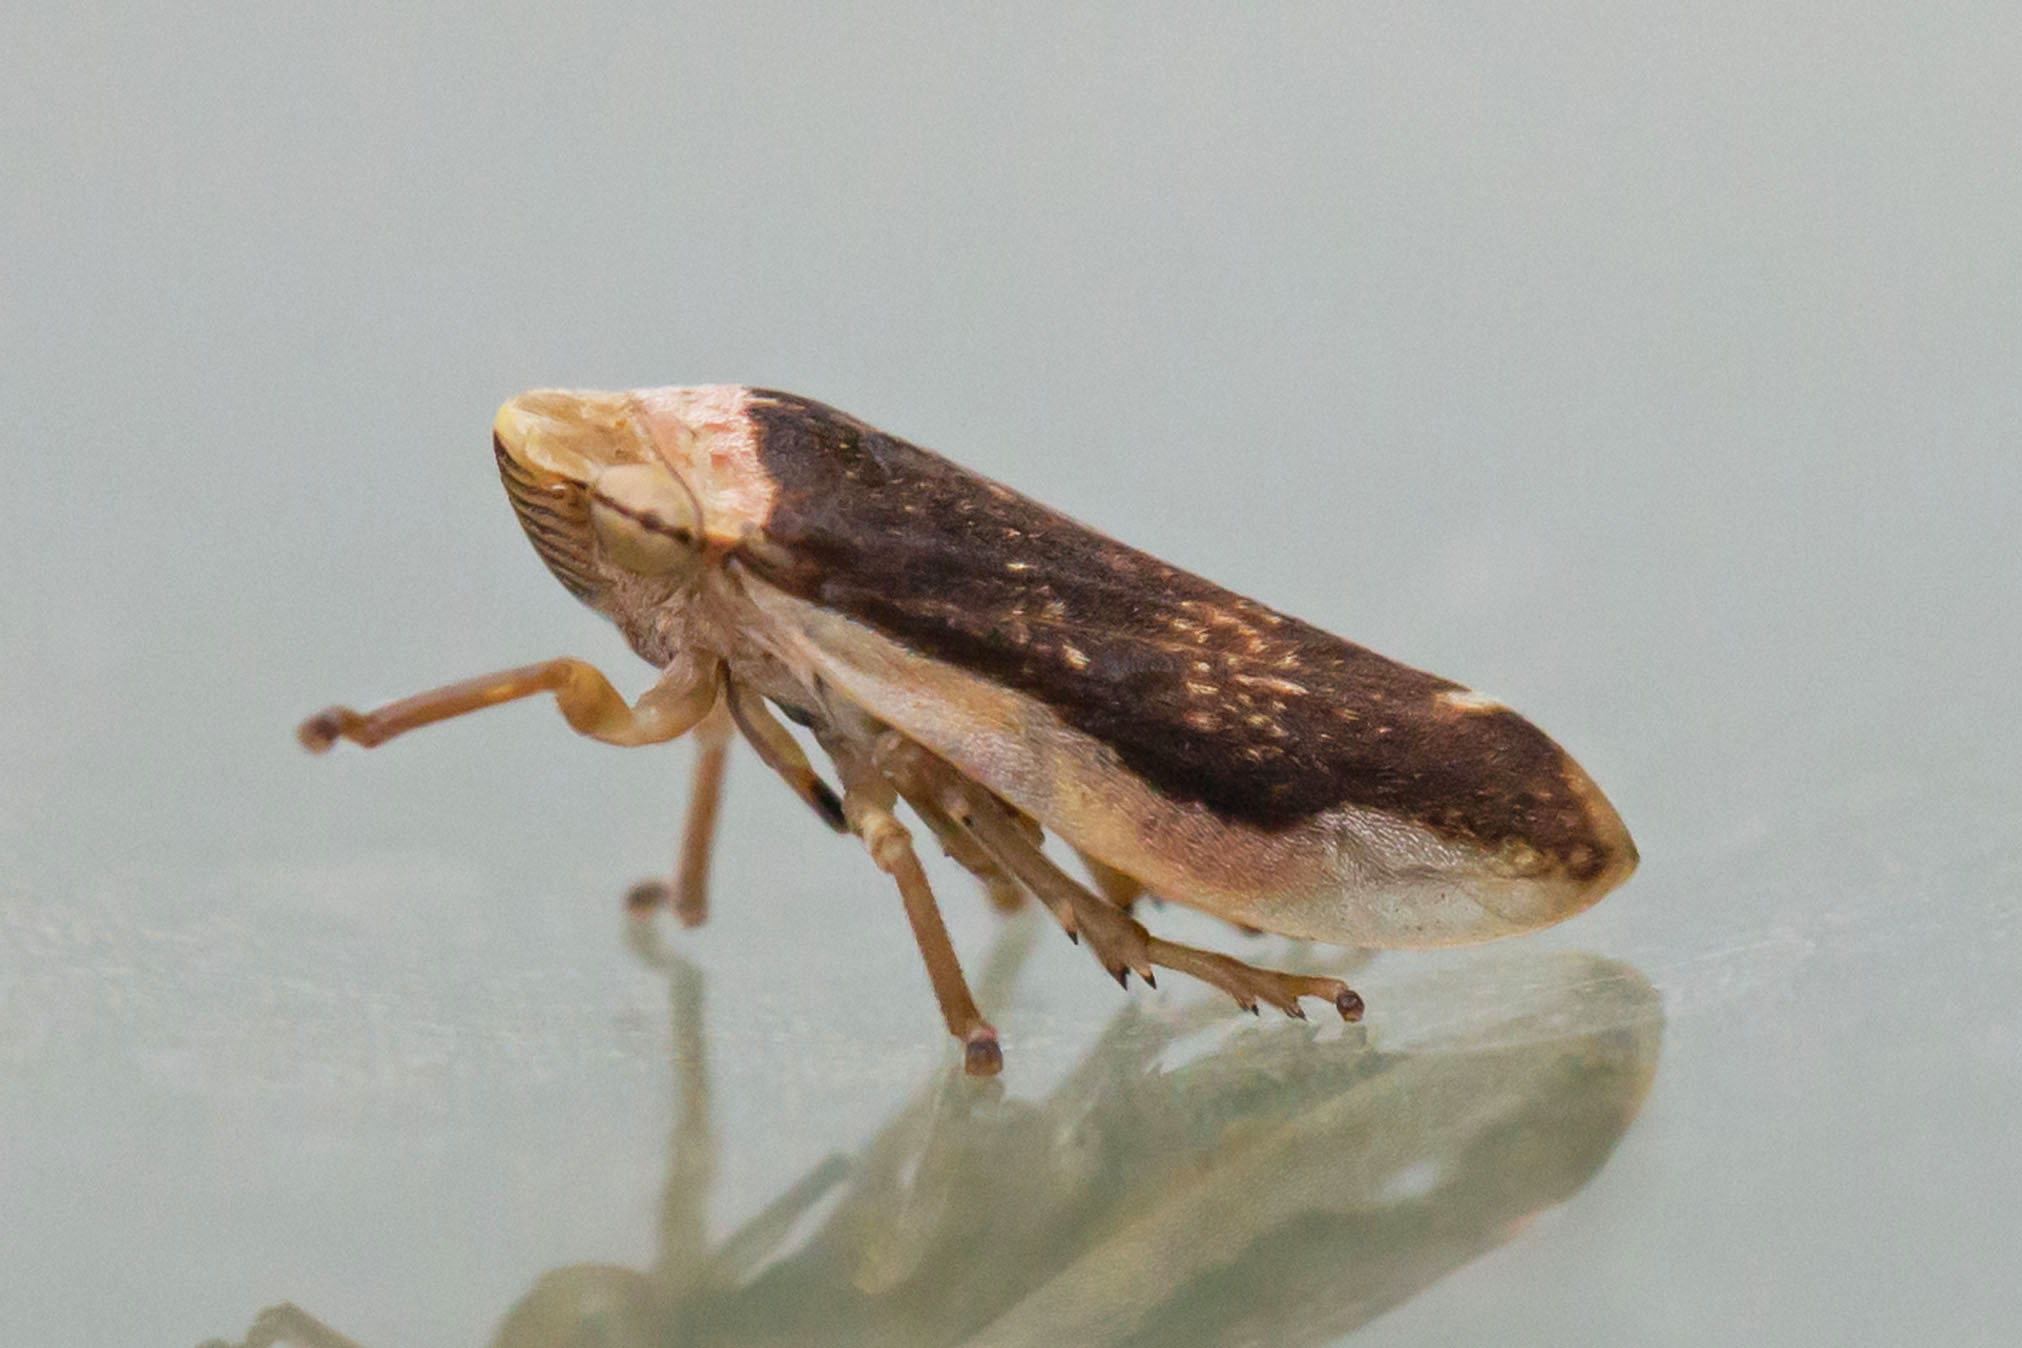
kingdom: Animalia
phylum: Arthropoda
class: Insecta
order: Hemiptera
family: Aphrophoridae
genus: Philaenus
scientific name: Philaenus spumarius
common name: Meadow spittlebug
